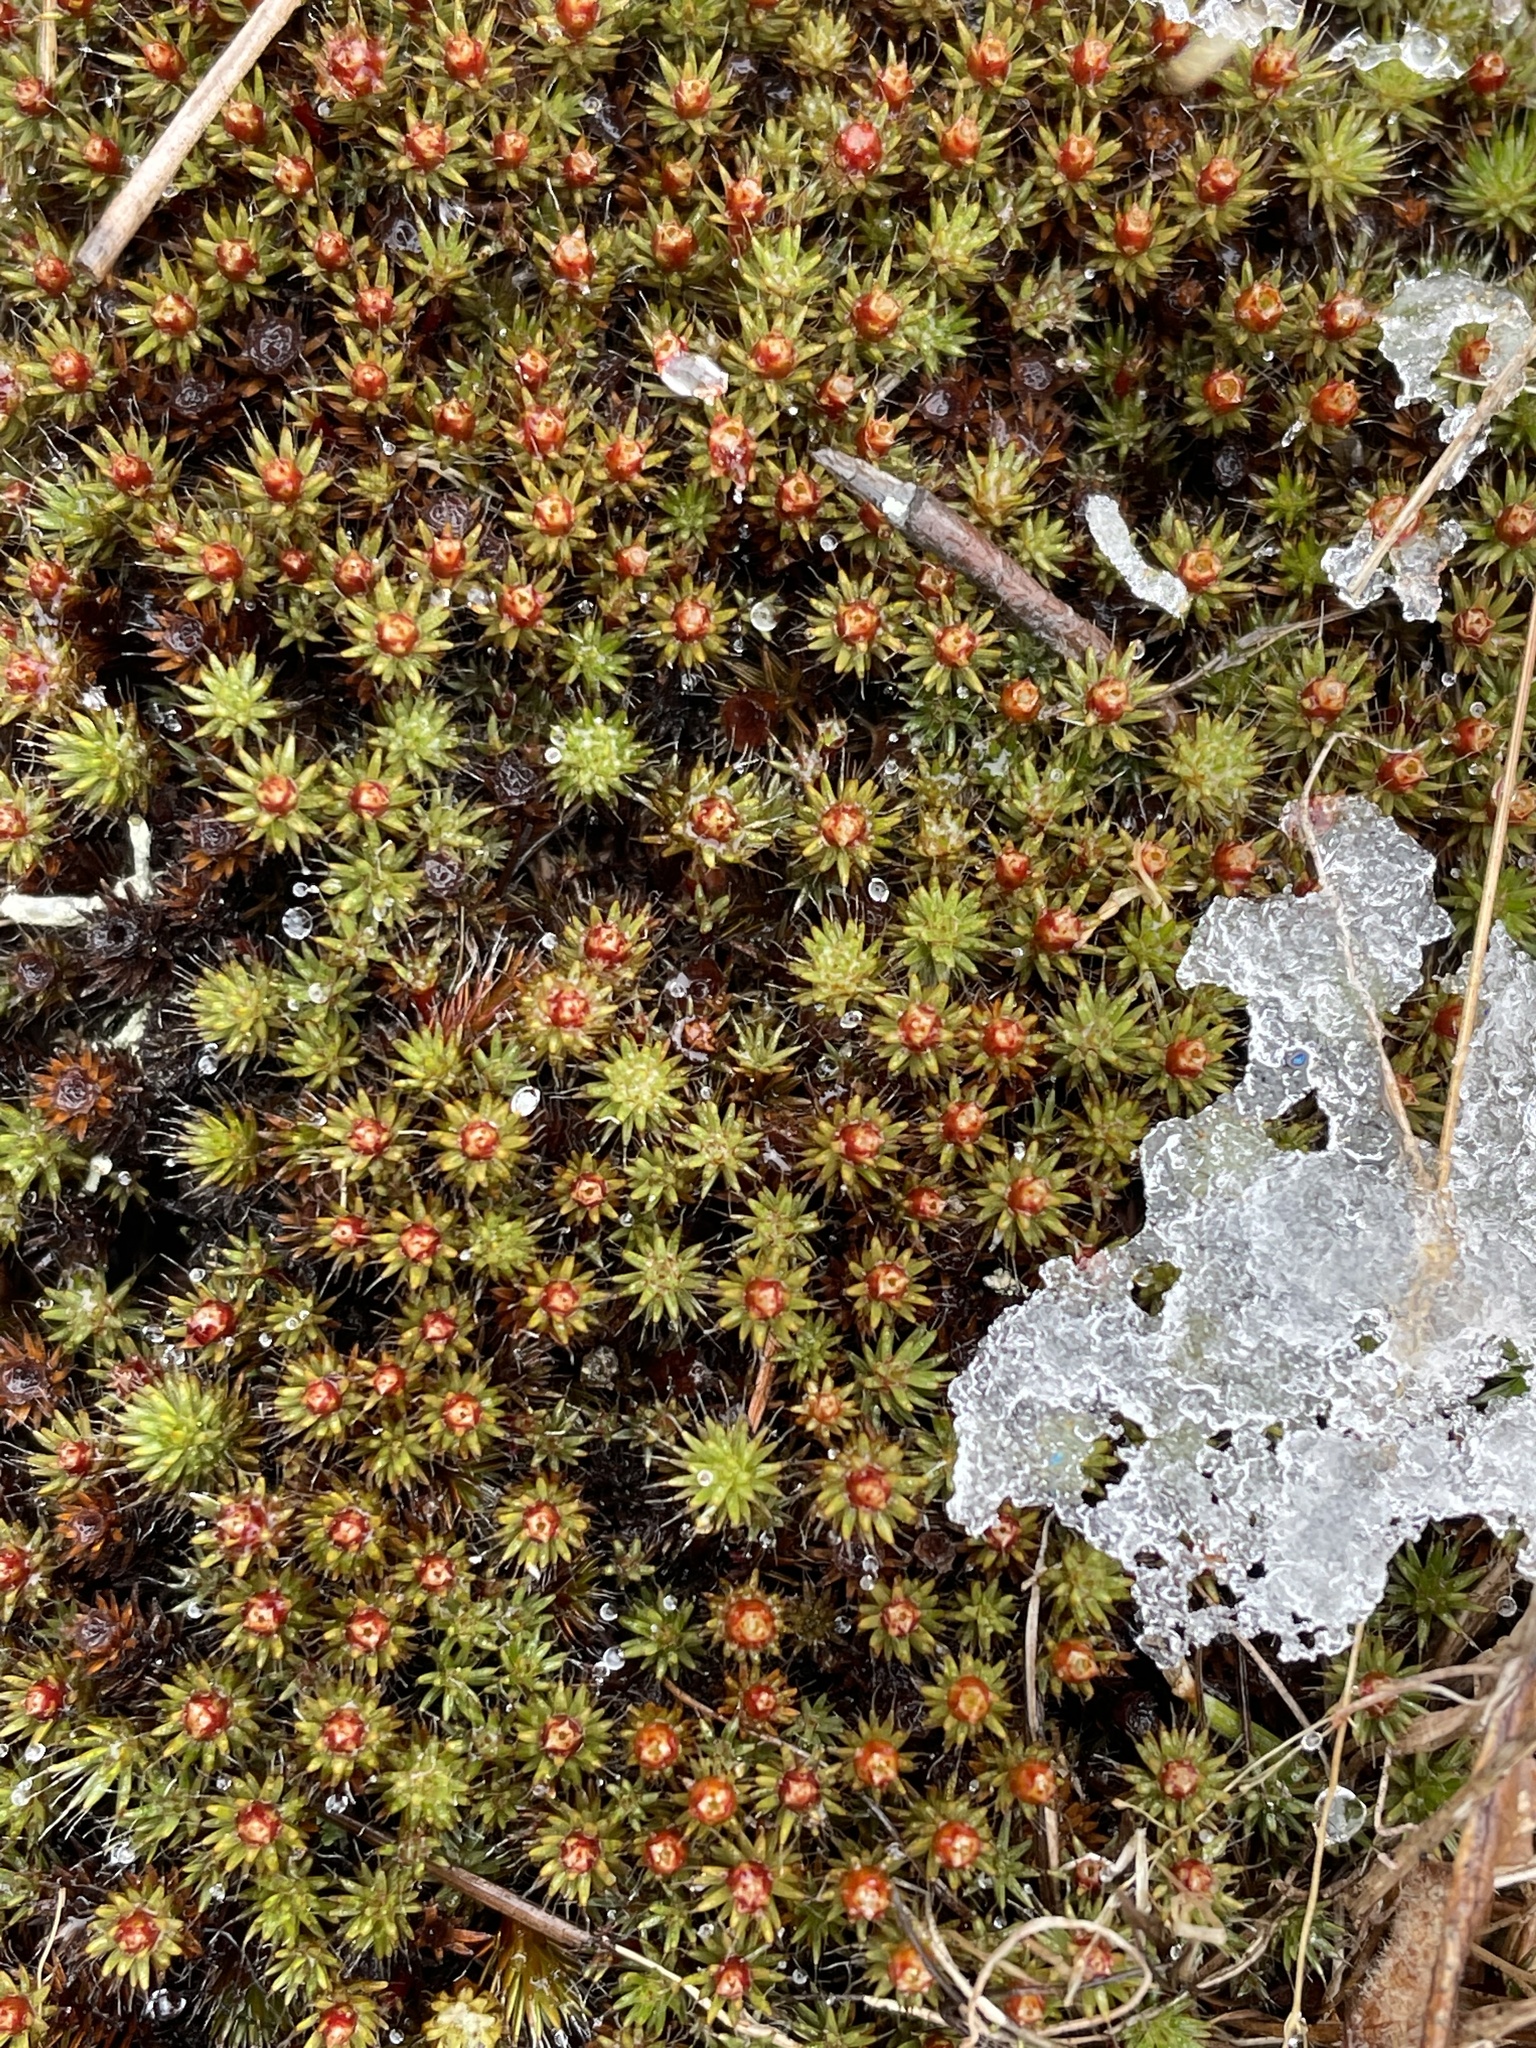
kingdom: Plantae
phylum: Bryophyta
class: Polytrichopsida
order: Polytrichales
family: Polytrichaceae
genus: Polytrichum
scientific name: Polytrichum piliferum
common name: Bristly haircap
